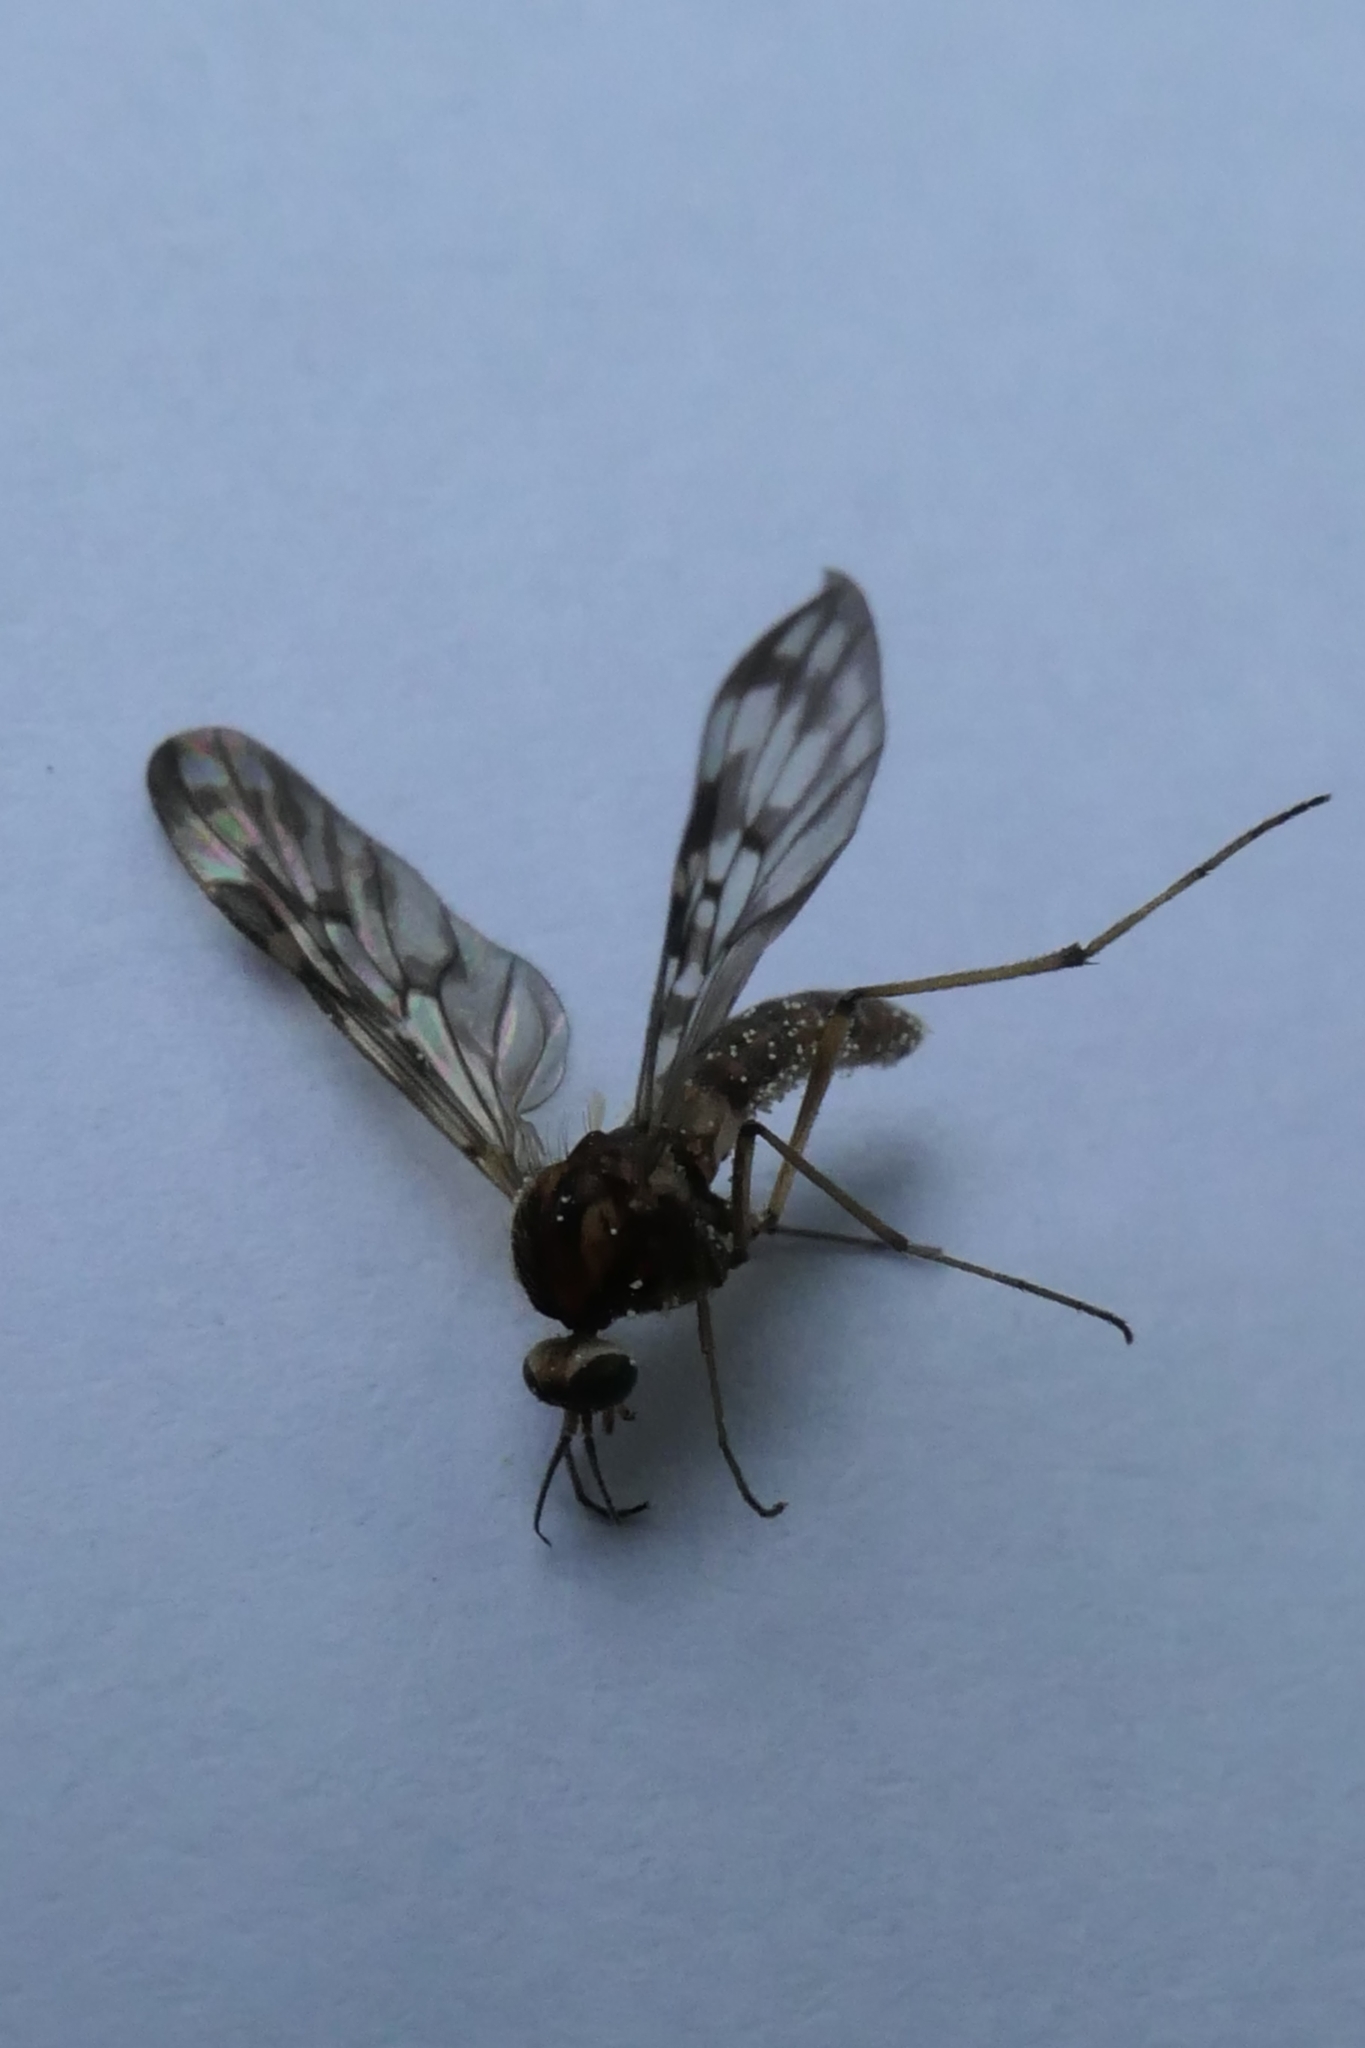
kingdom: Animalia
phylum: Arthropoda
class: Insecta
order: Diptera
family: Anisopodidae
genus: Sylvicola
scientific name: Sylvicola dubius
